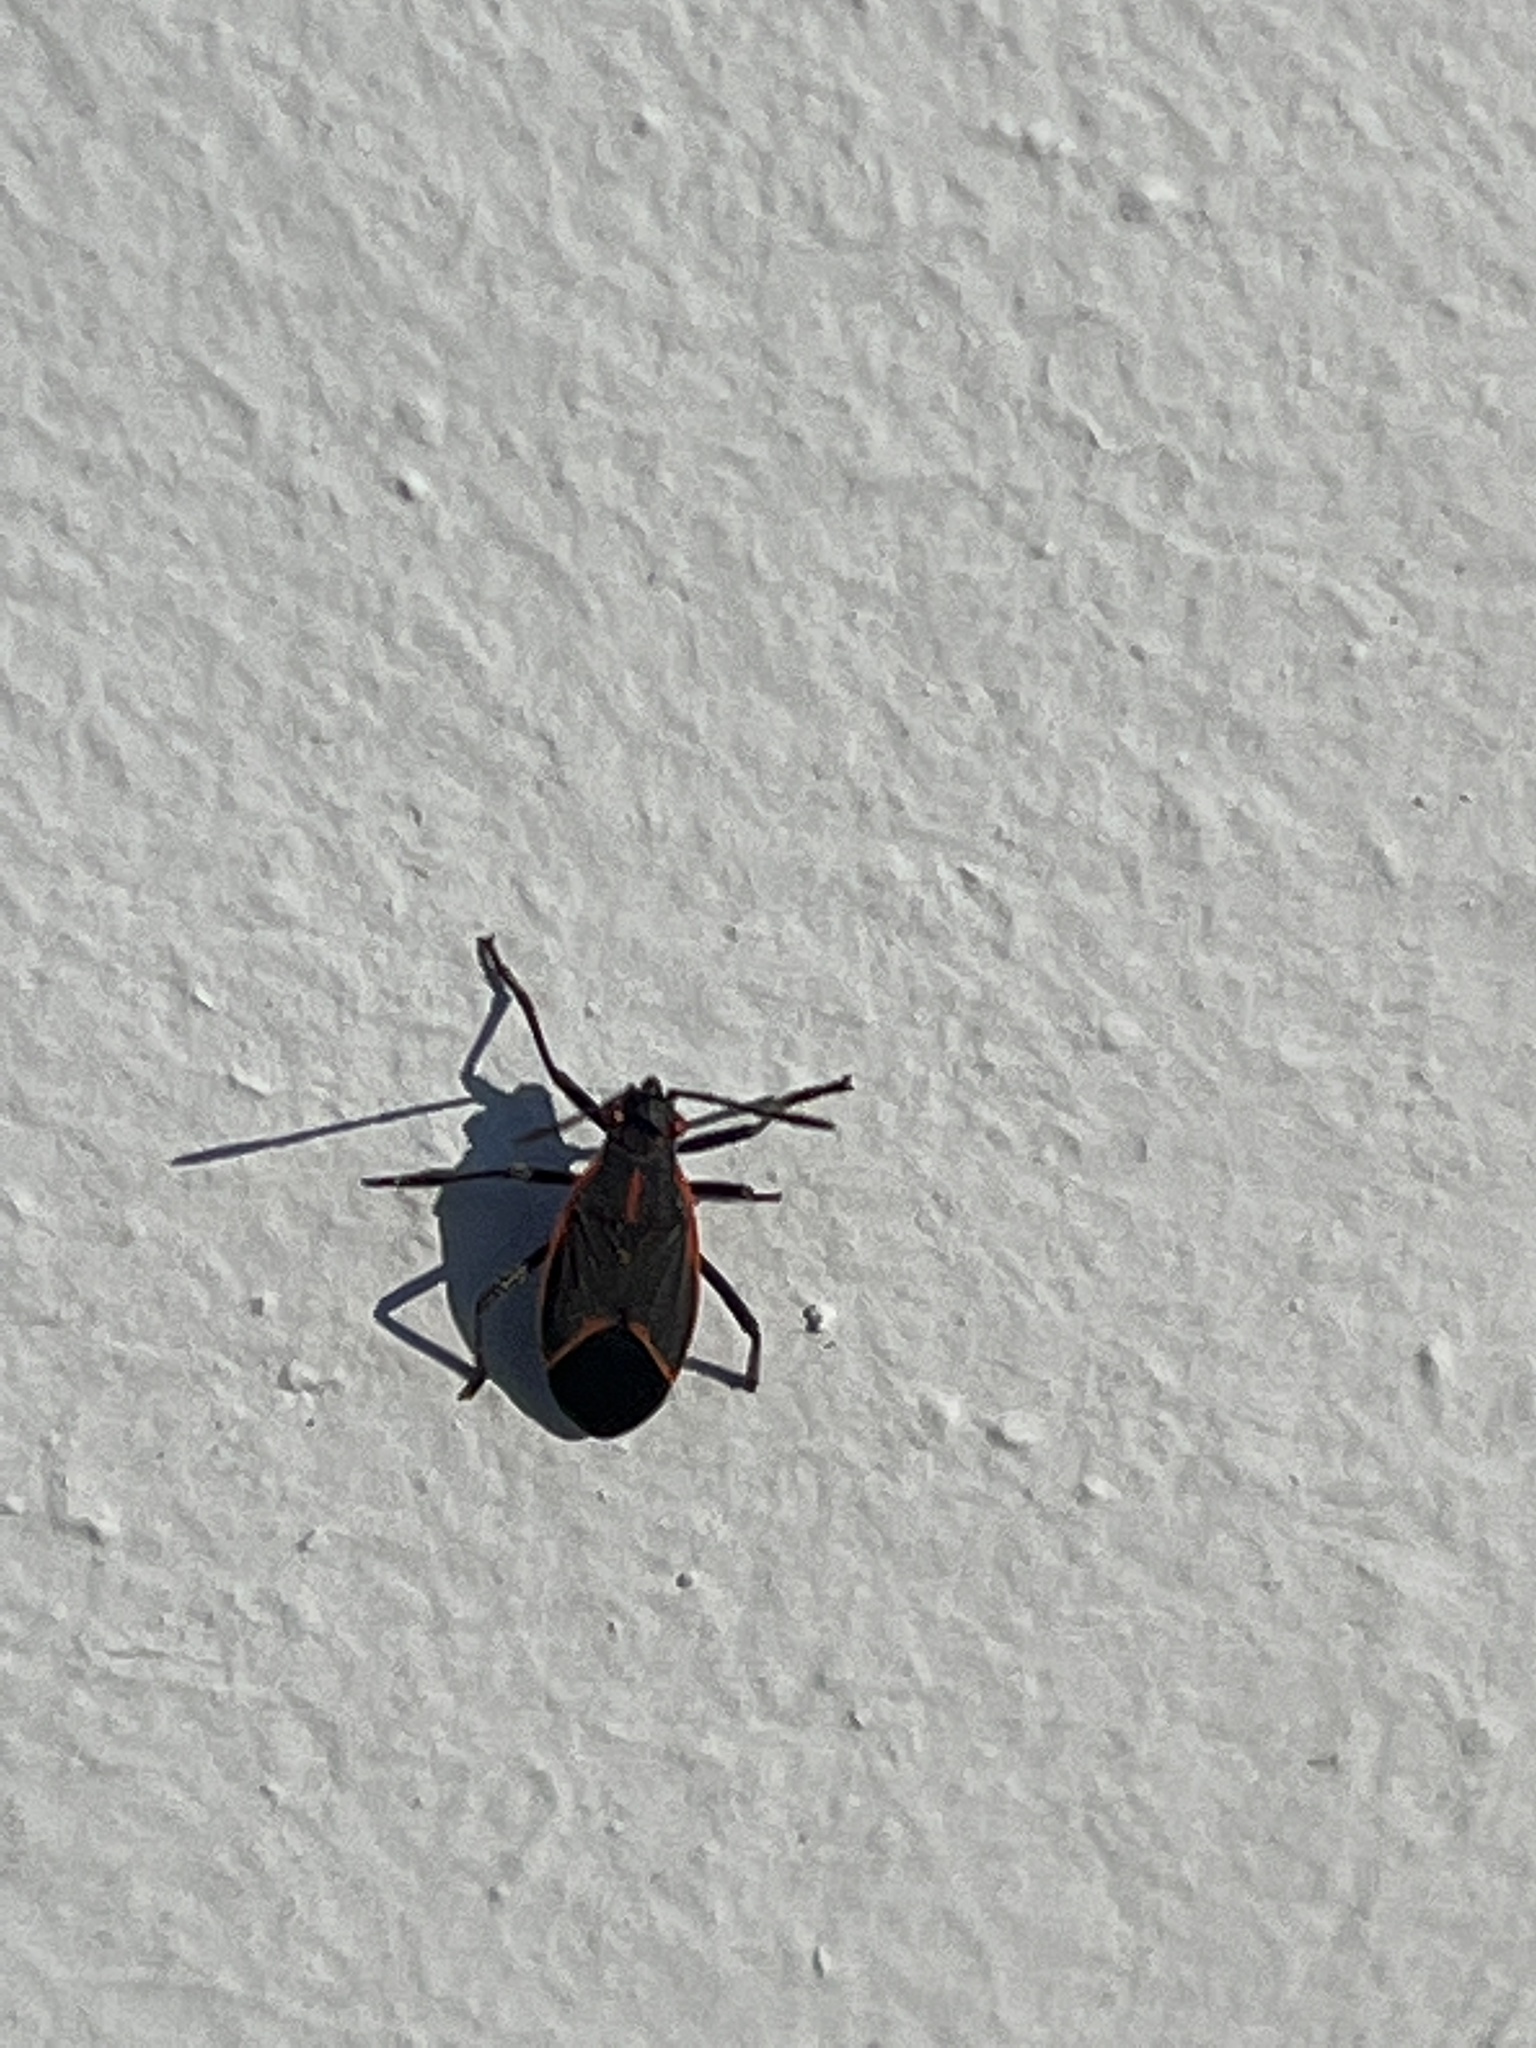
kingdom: Animalia
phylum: Arthropoda
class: Insecta
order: Hemiptera
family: Rhopalidae
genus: Boisea
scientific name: Boisea trivittata
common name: Boxelder bug
